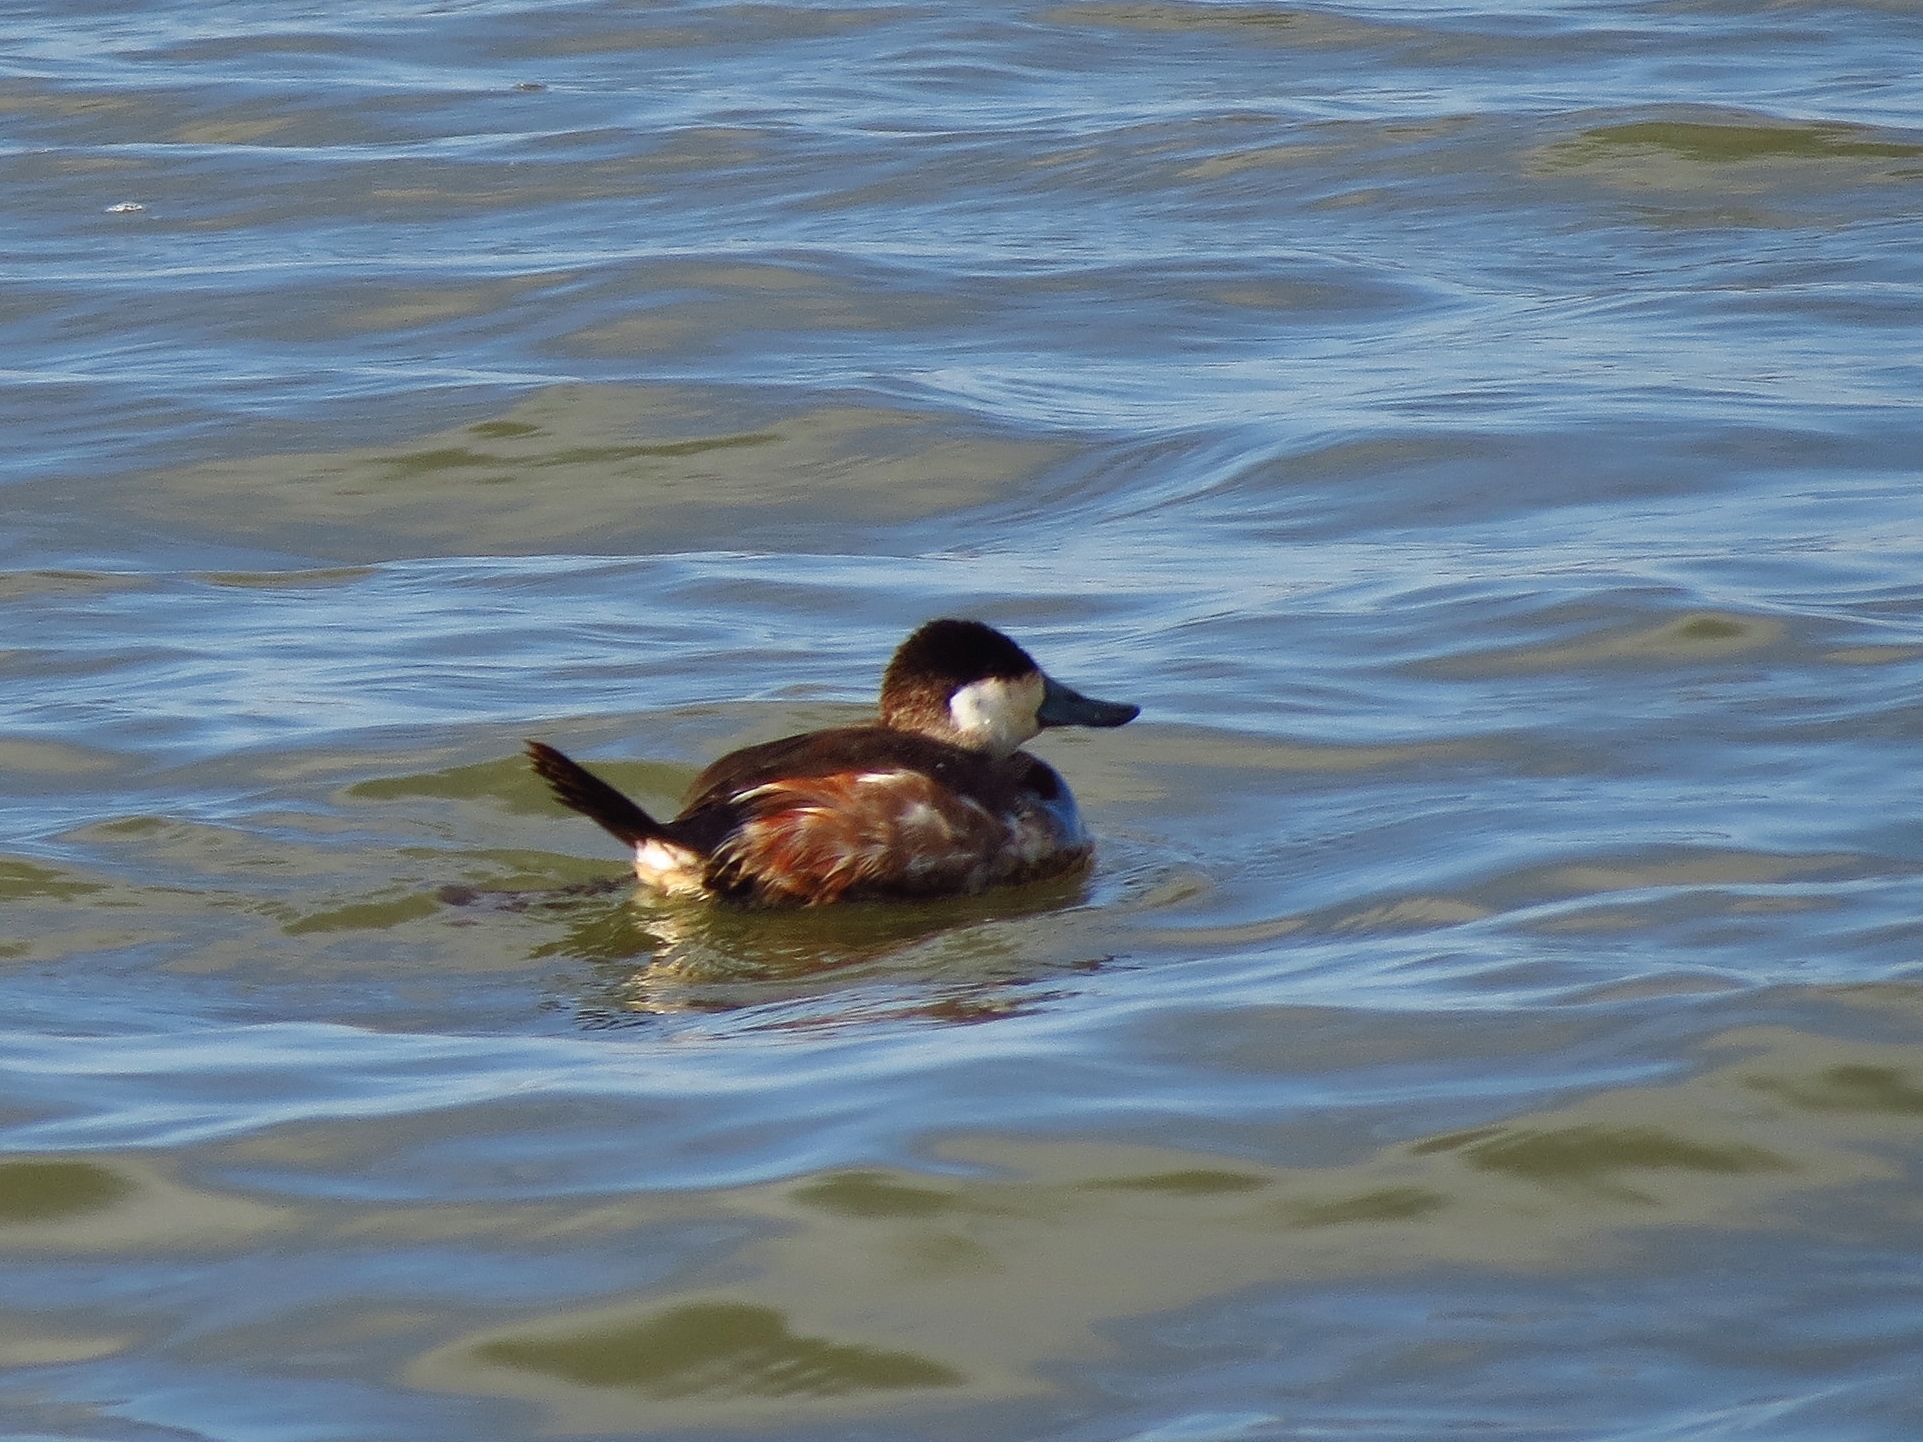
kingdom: Animalia
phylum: Chordata
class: Aves
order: Anseriformes
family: Anatidae
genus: Oxyura
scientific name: Oxyura jamaicensis
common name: Ruddy duck
